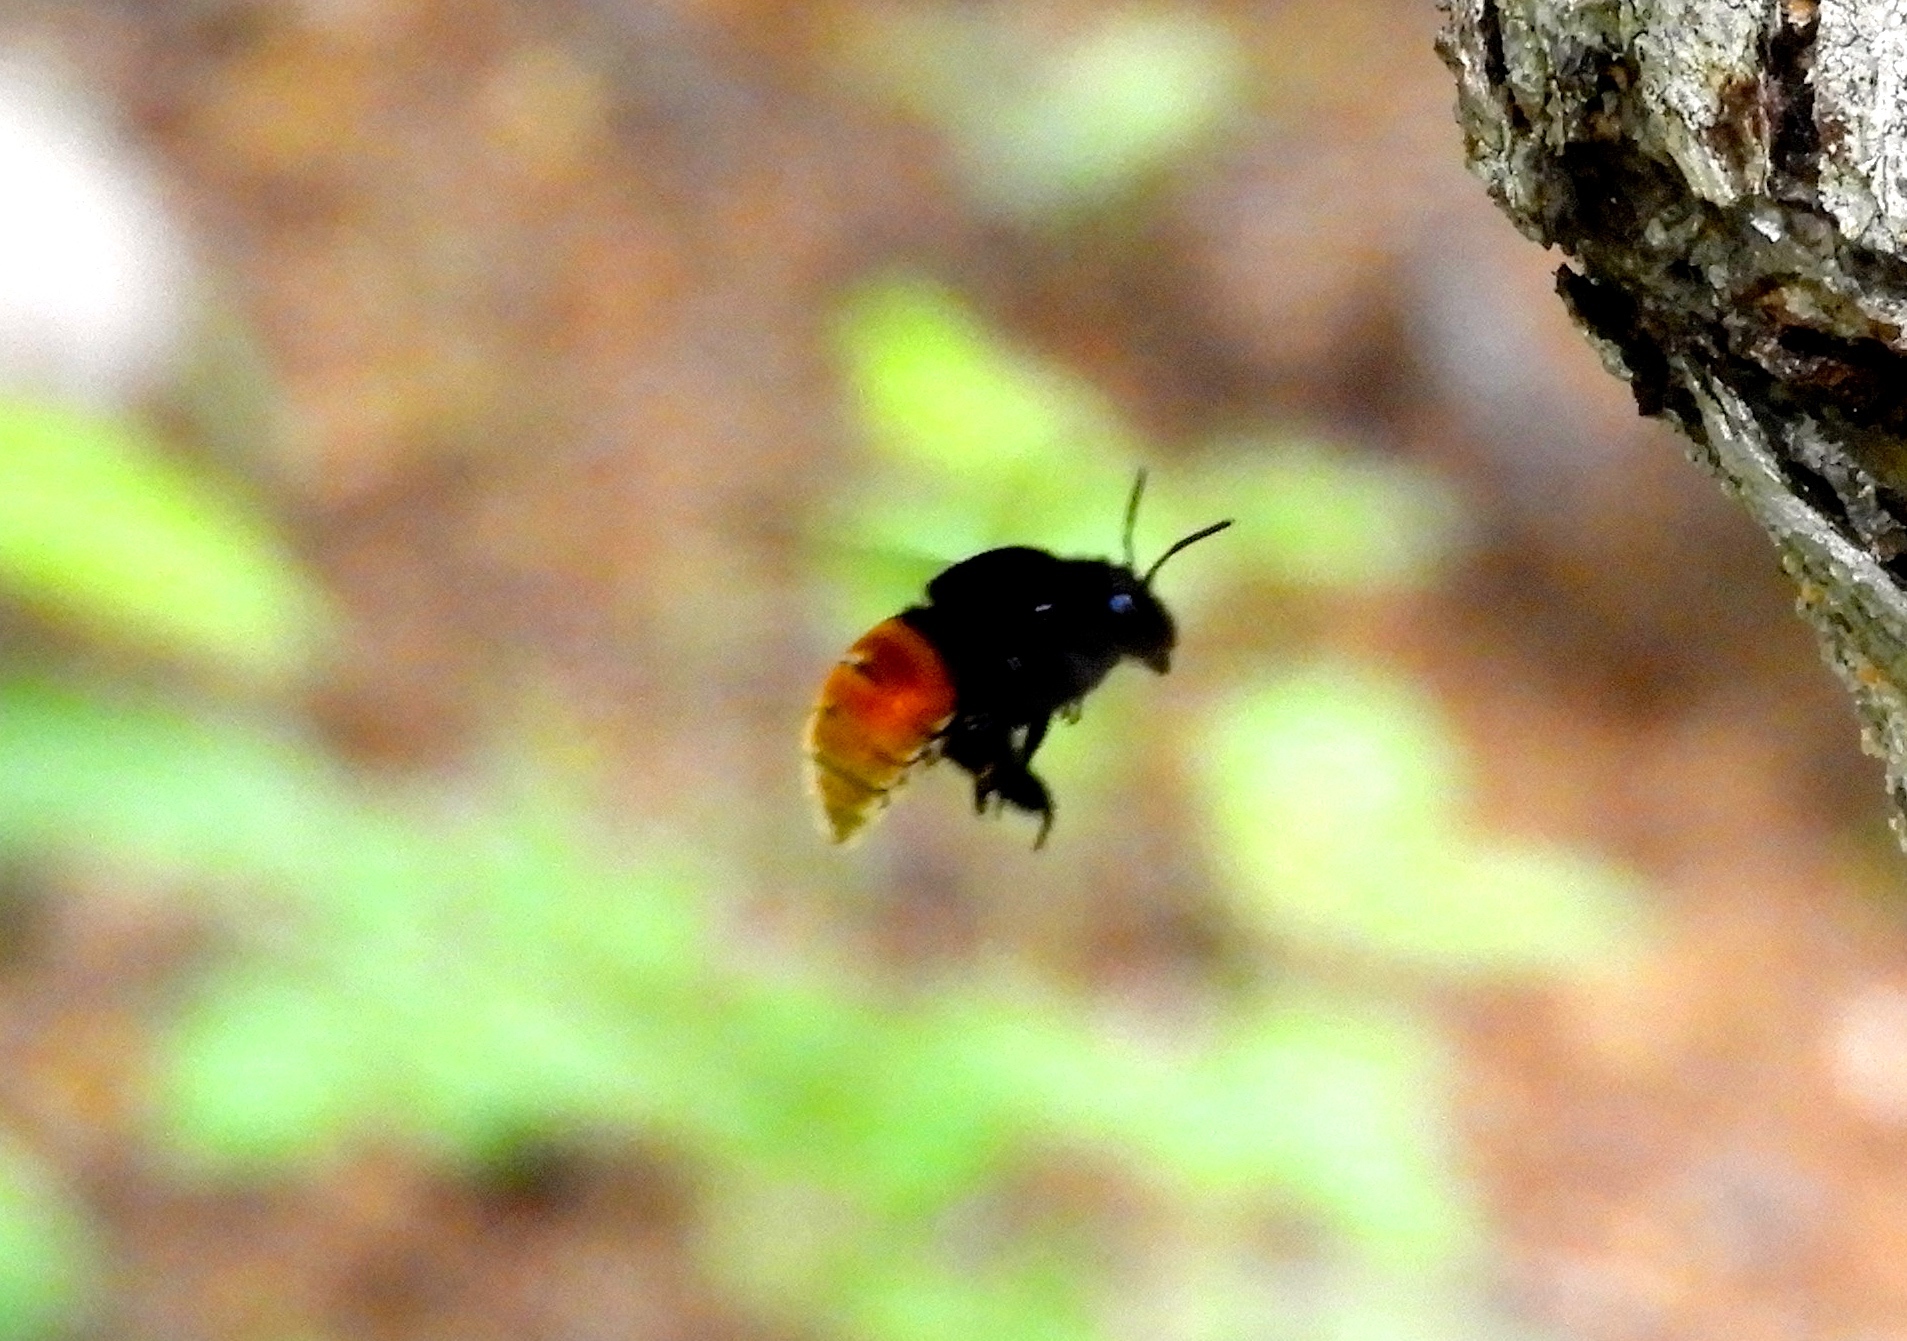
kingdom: Animalia
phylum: Arthropoda
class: Insecta
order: Hymenoptera
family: Apidae
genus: Eulaema
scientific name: Eulaema polychroma
